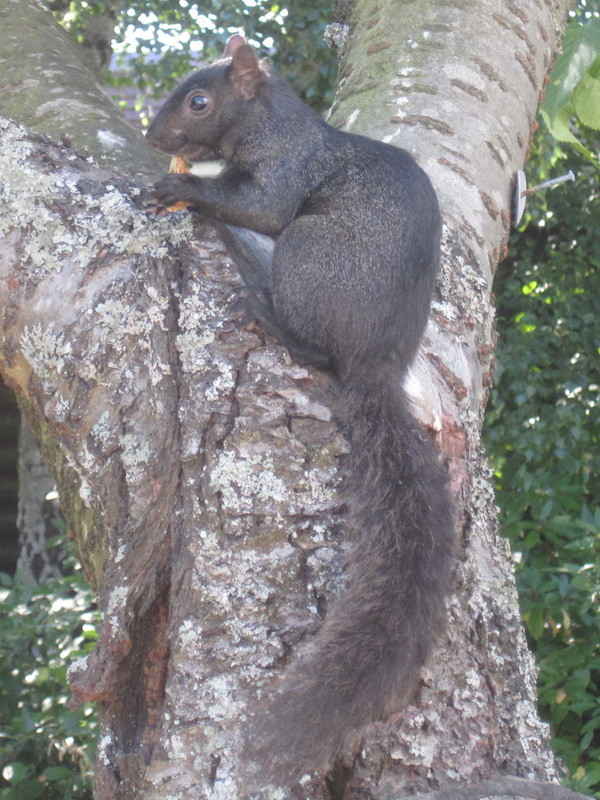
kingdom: Animalia
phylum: Chordata
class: Mammalia
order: Rodentia
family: Sciuridae
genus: Sciurus
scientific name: Sciurus carolinensis
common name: Eastern gray squirrel
